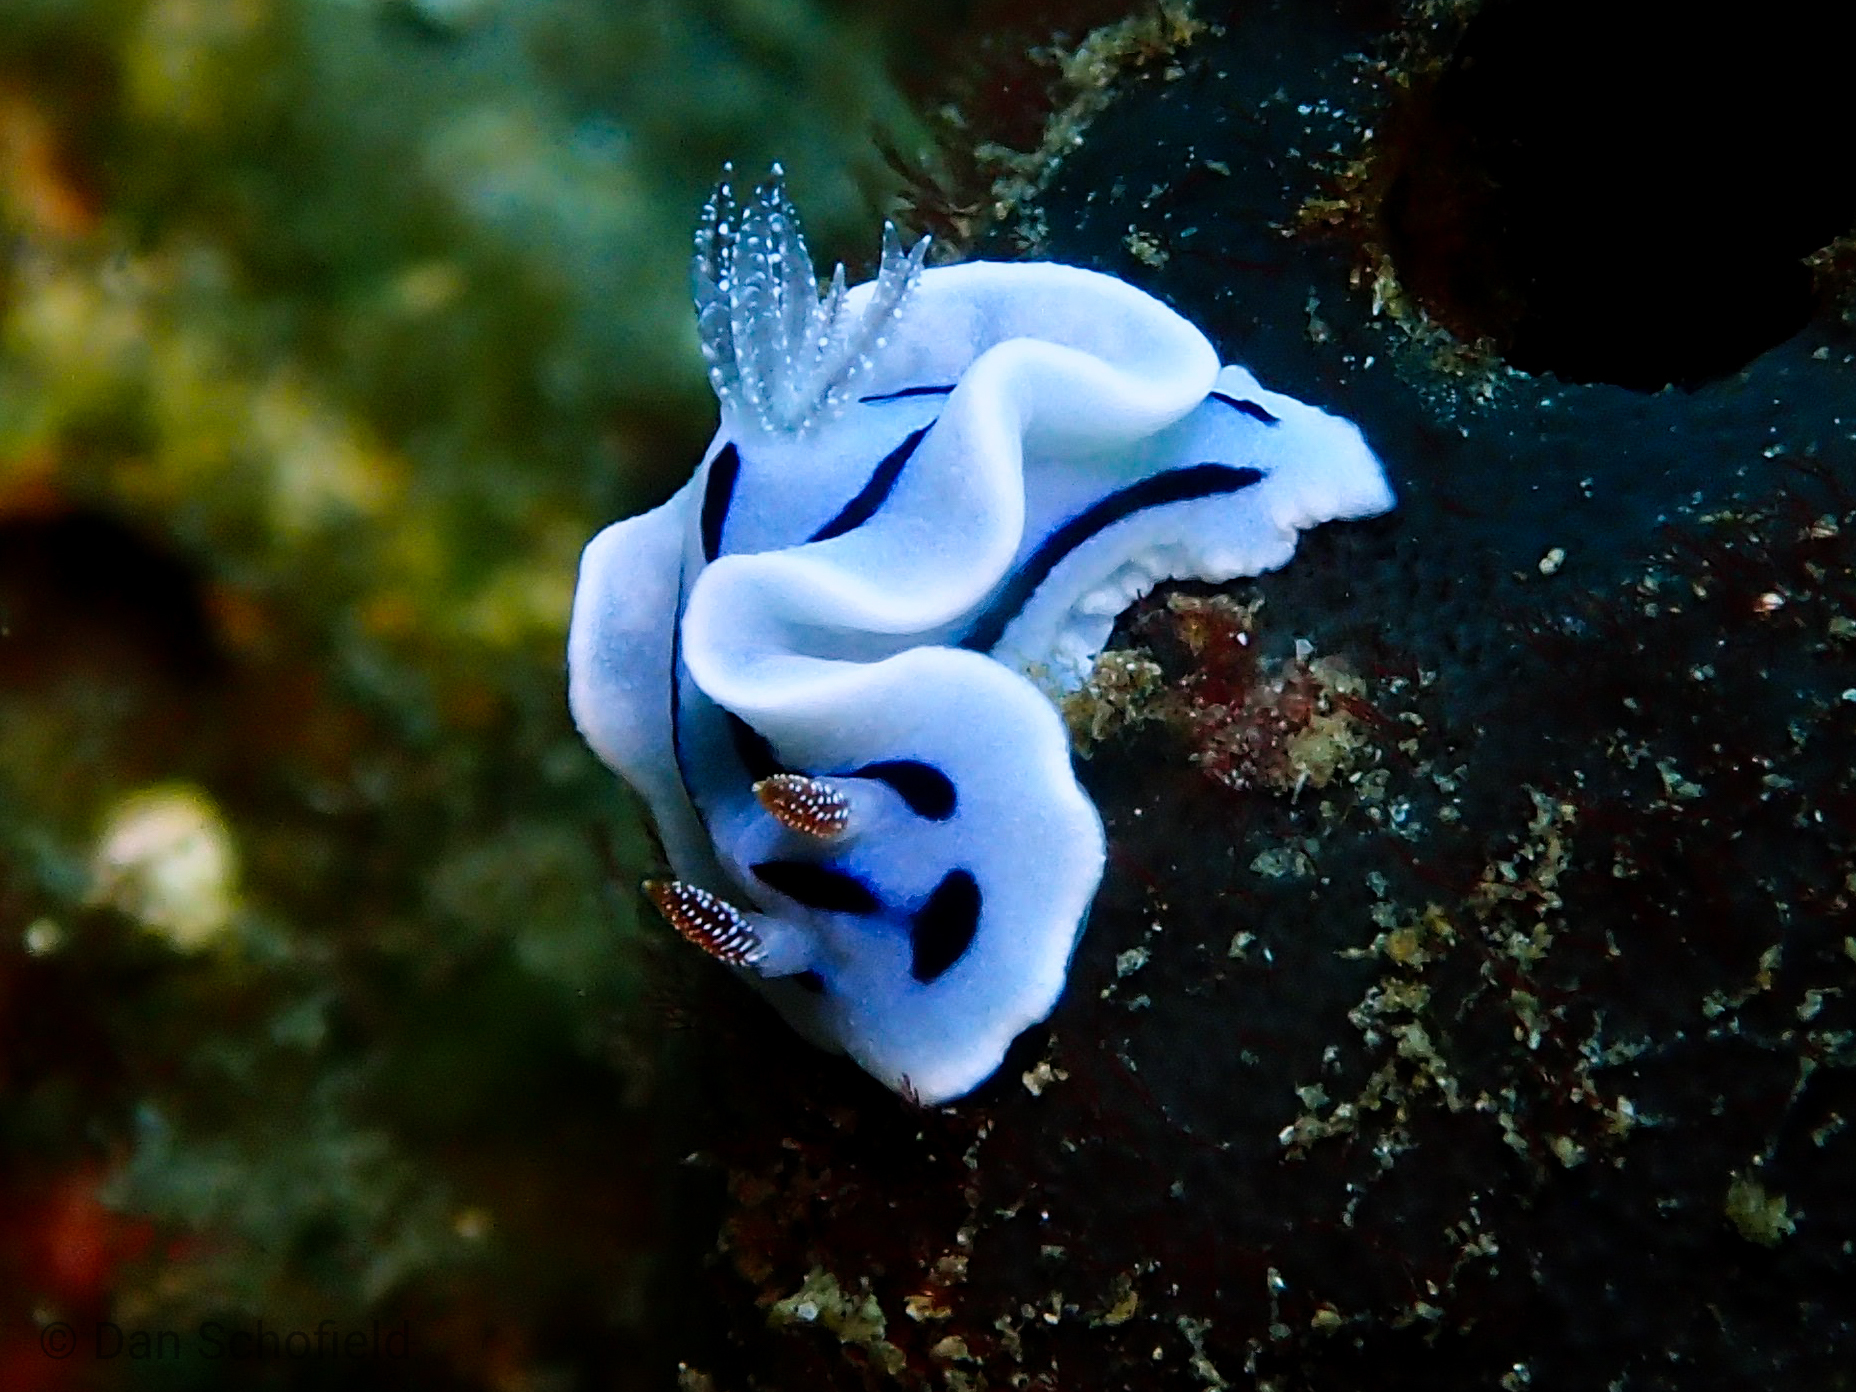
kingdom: Animalia
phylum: Mollusca
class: Gastropoda
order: Nudibranchia
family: Chromodorididae
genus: Chromodoris
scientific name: Chromodoris willani
